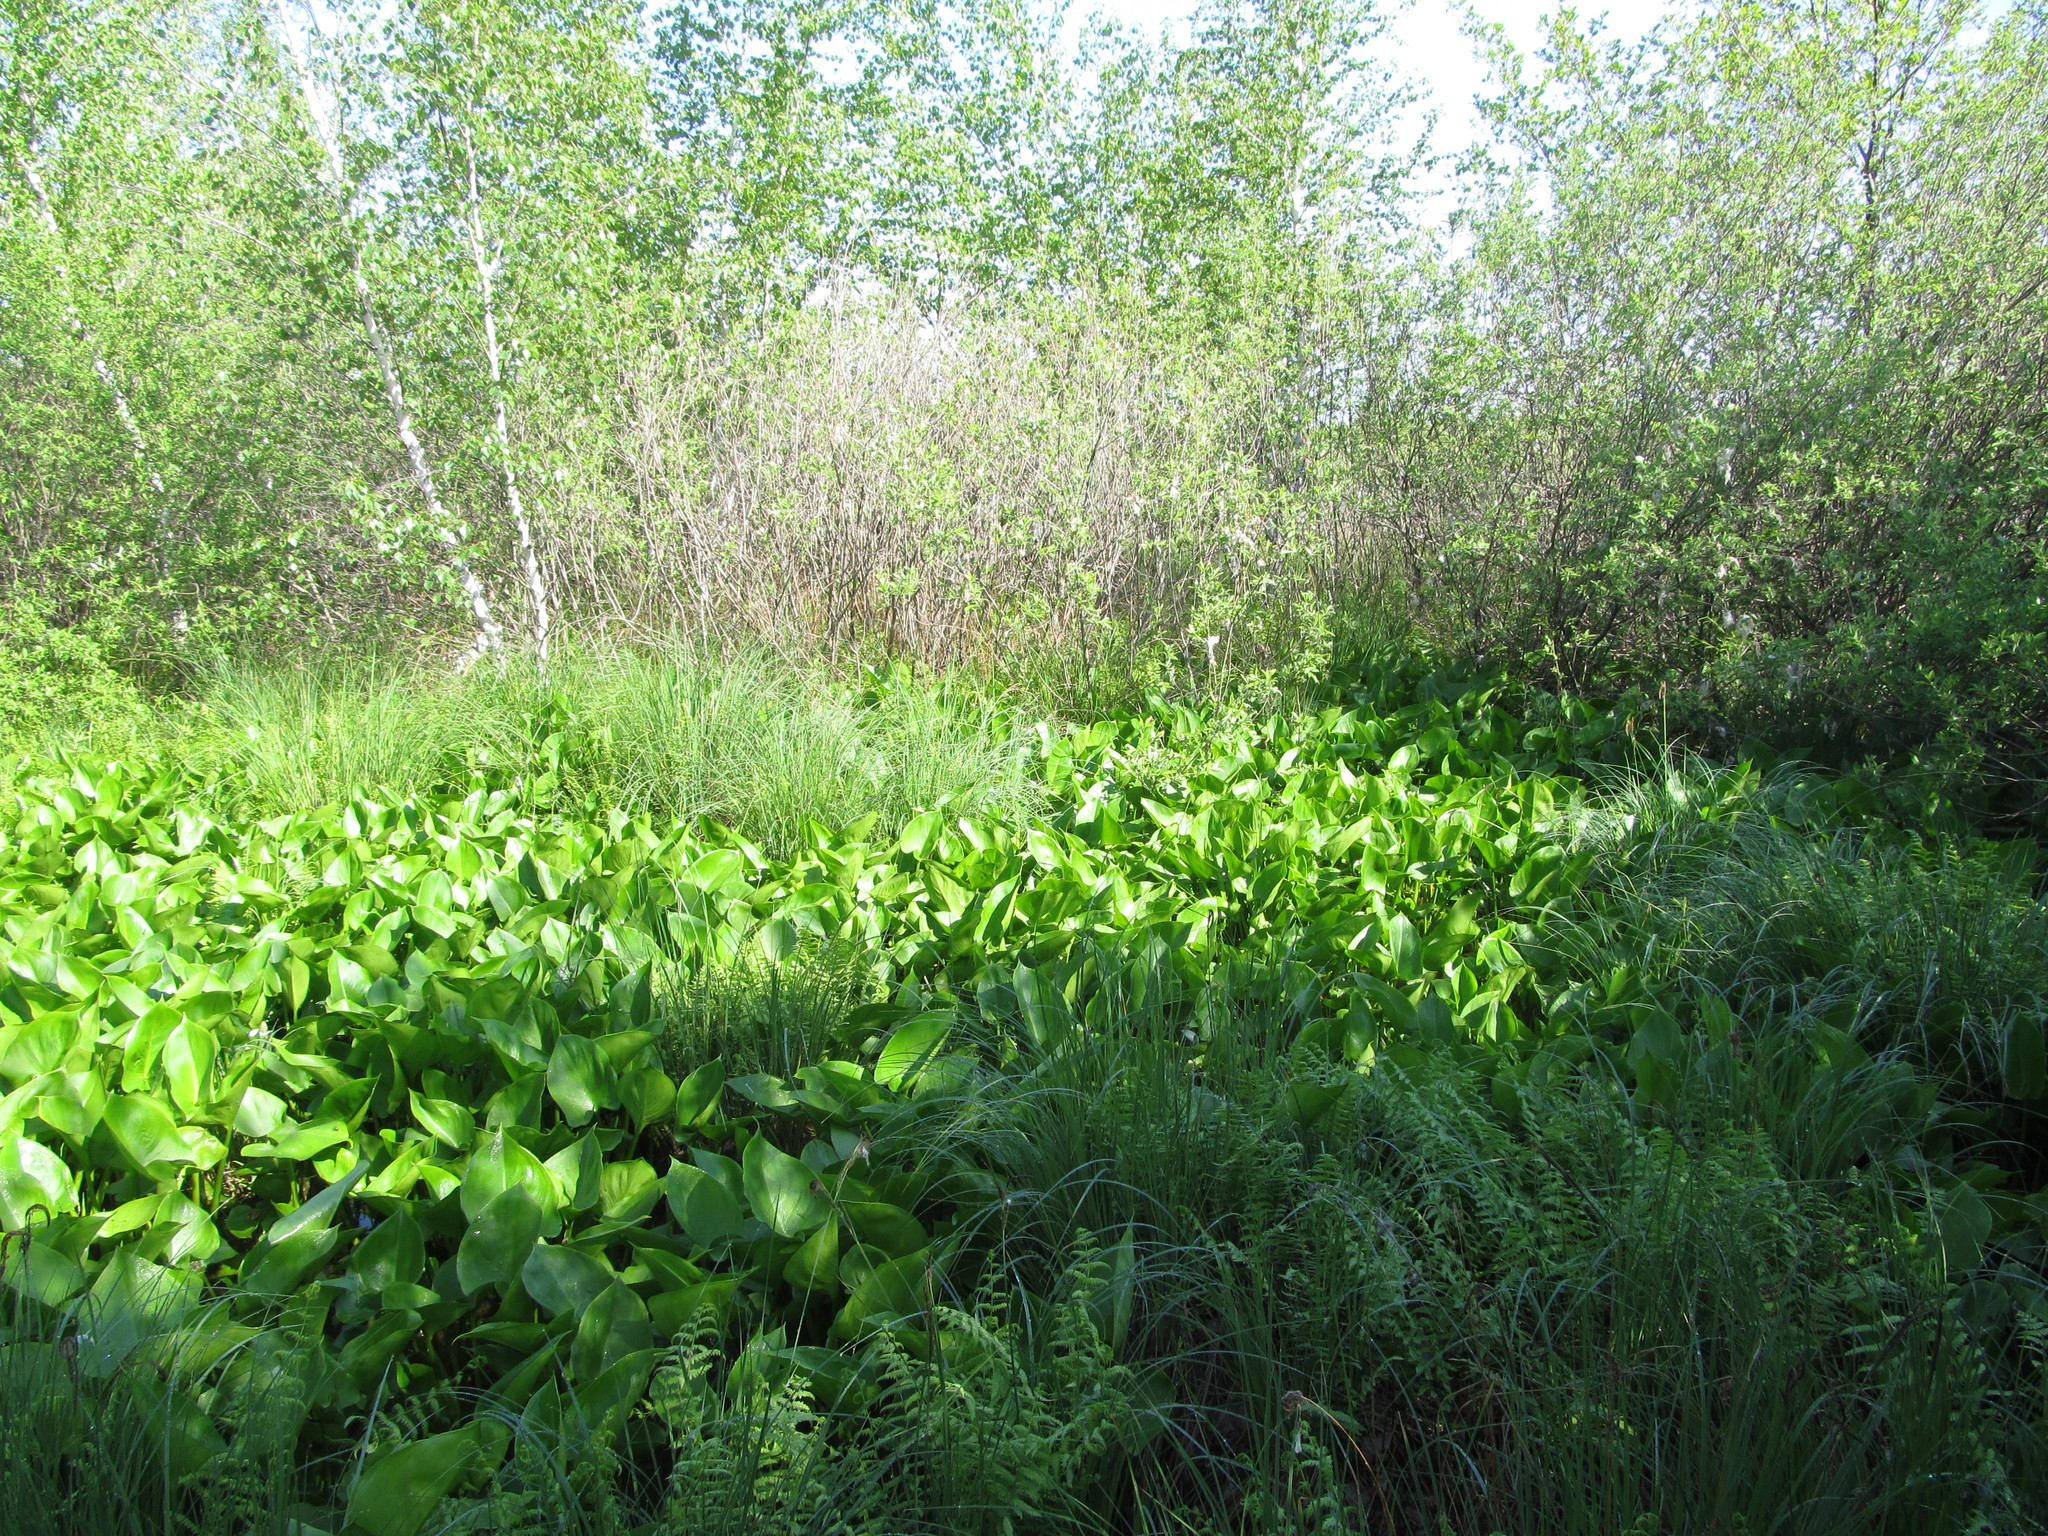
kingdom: Plantae
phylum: Tracheophyta
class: Liliopsida
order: Alismatales
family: Araceae
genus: Calla
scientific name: Calla palustris
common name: Bog arum
